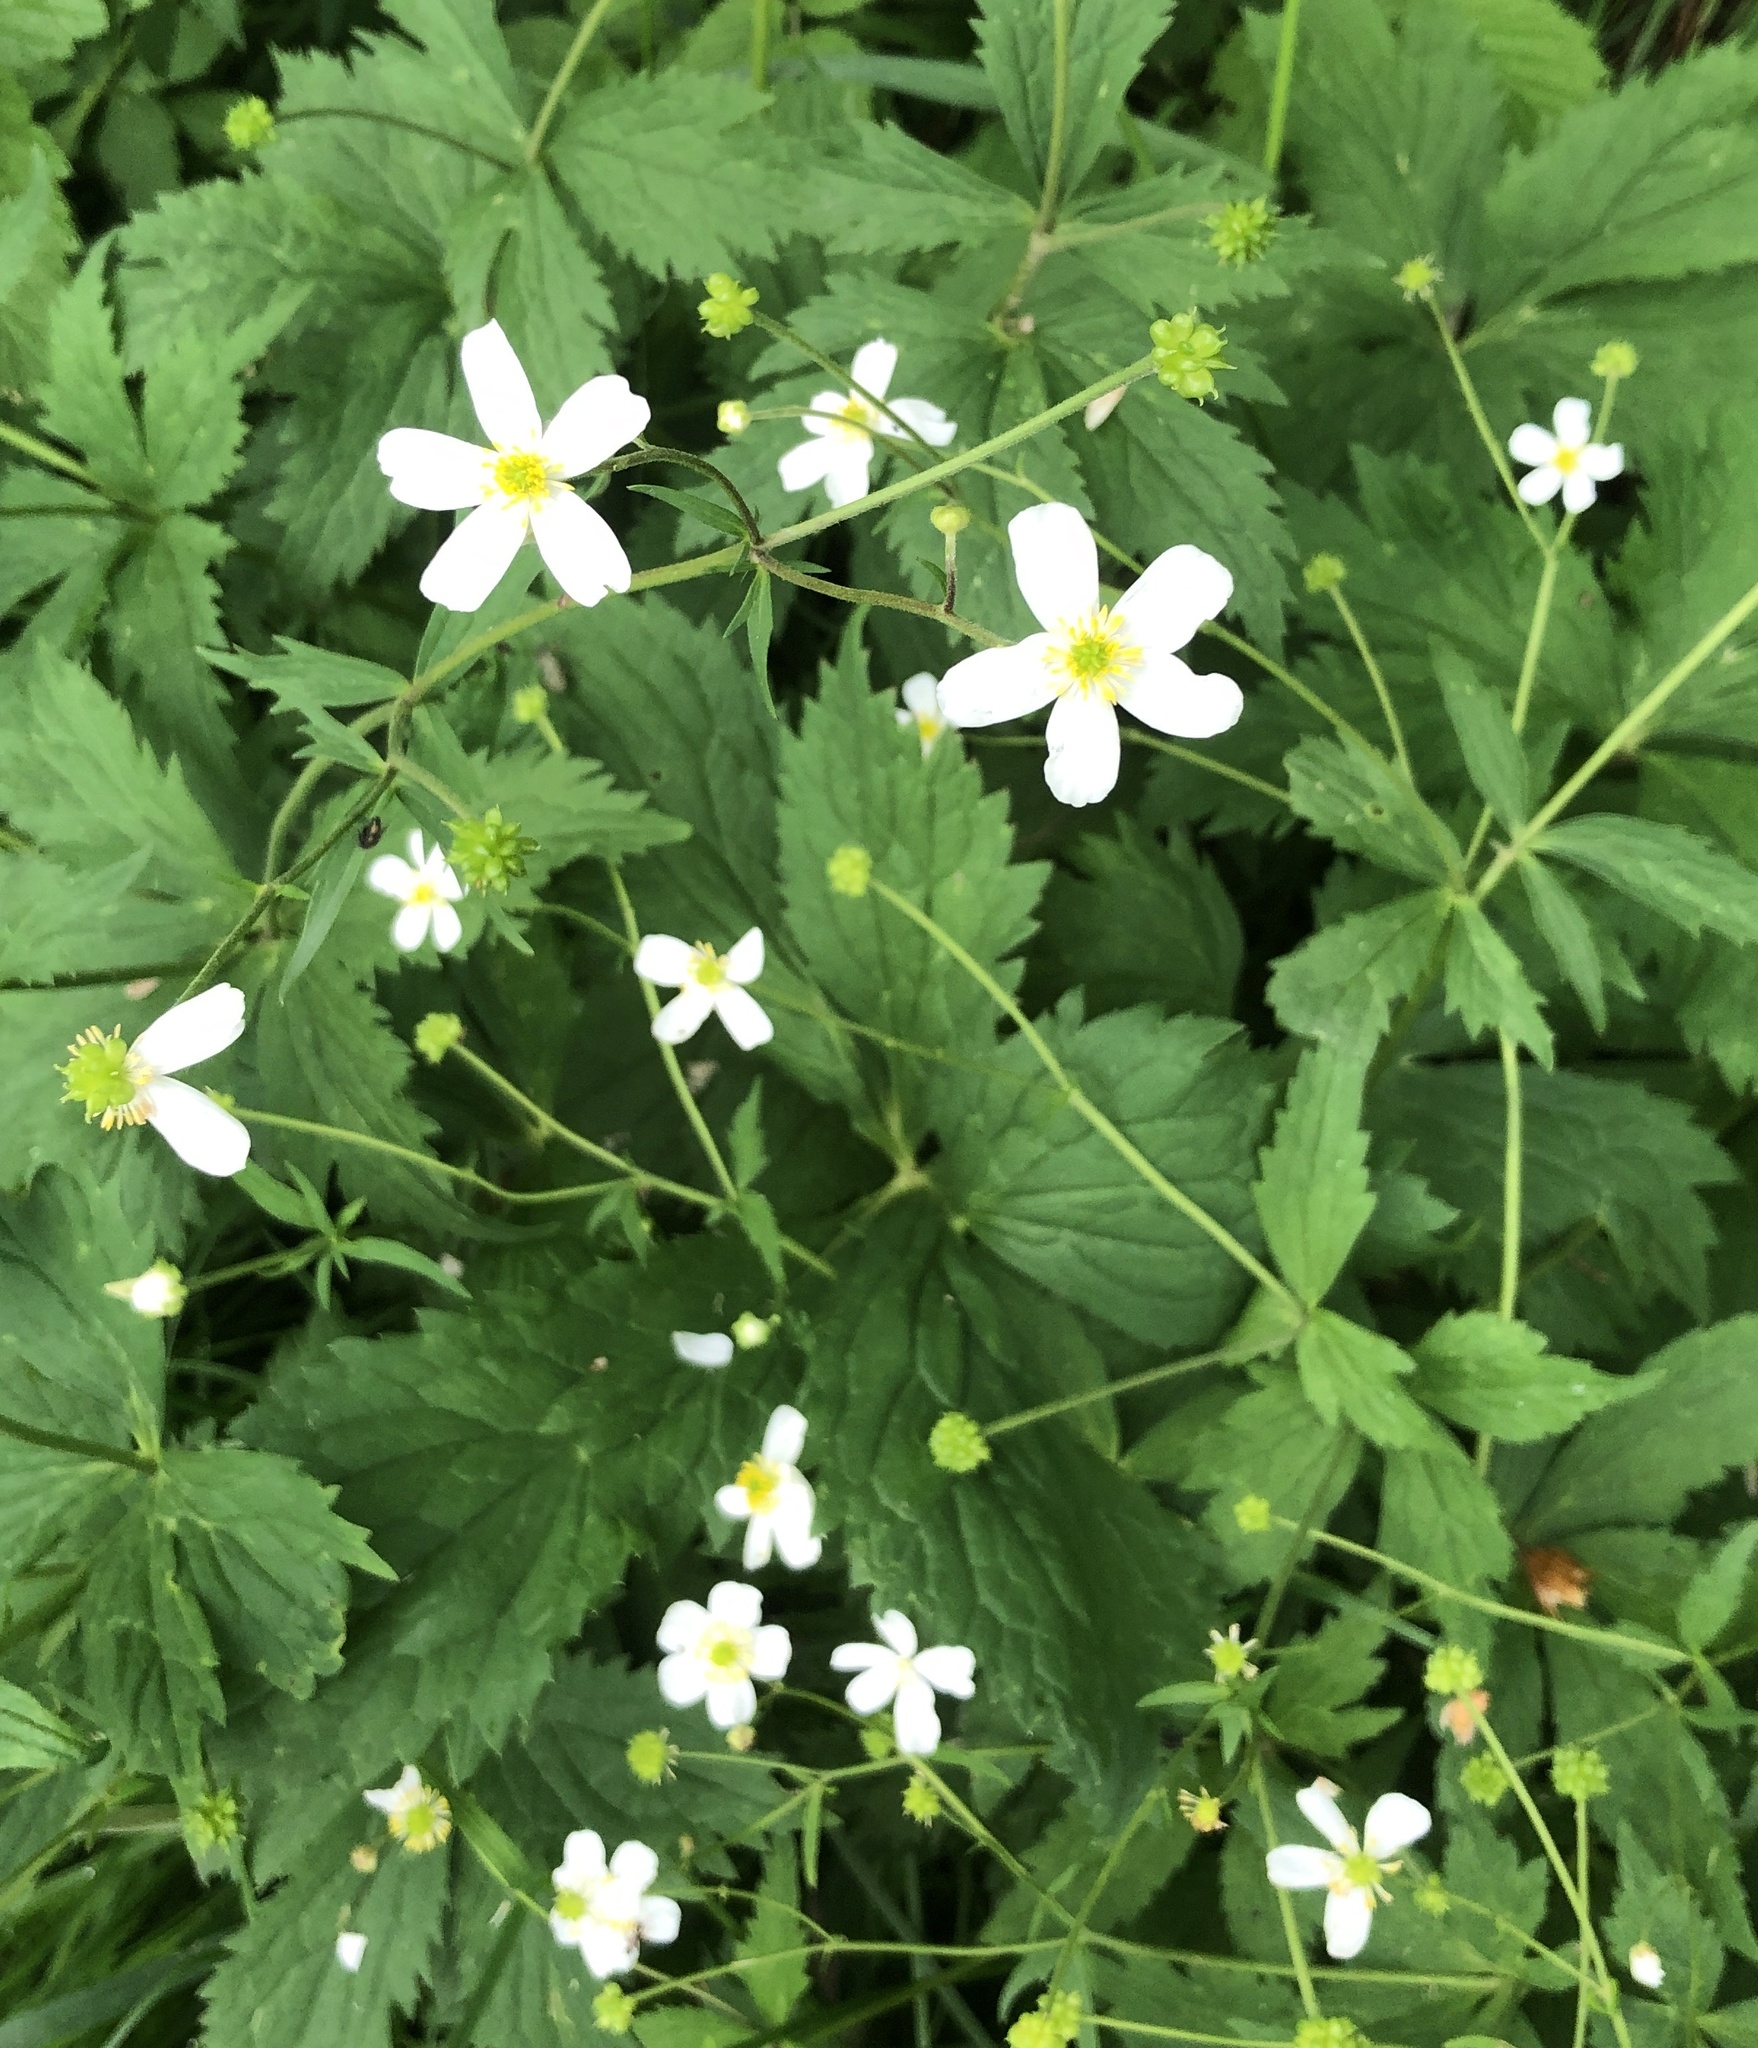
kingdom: Plantae
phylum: Tracheophyta
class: Magnoliopsida
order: Ranunculales
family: Ranunculaceae
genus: Ranunculus
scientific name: Ranunculus aconitifolius
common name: Aconite-leaved buttercup
